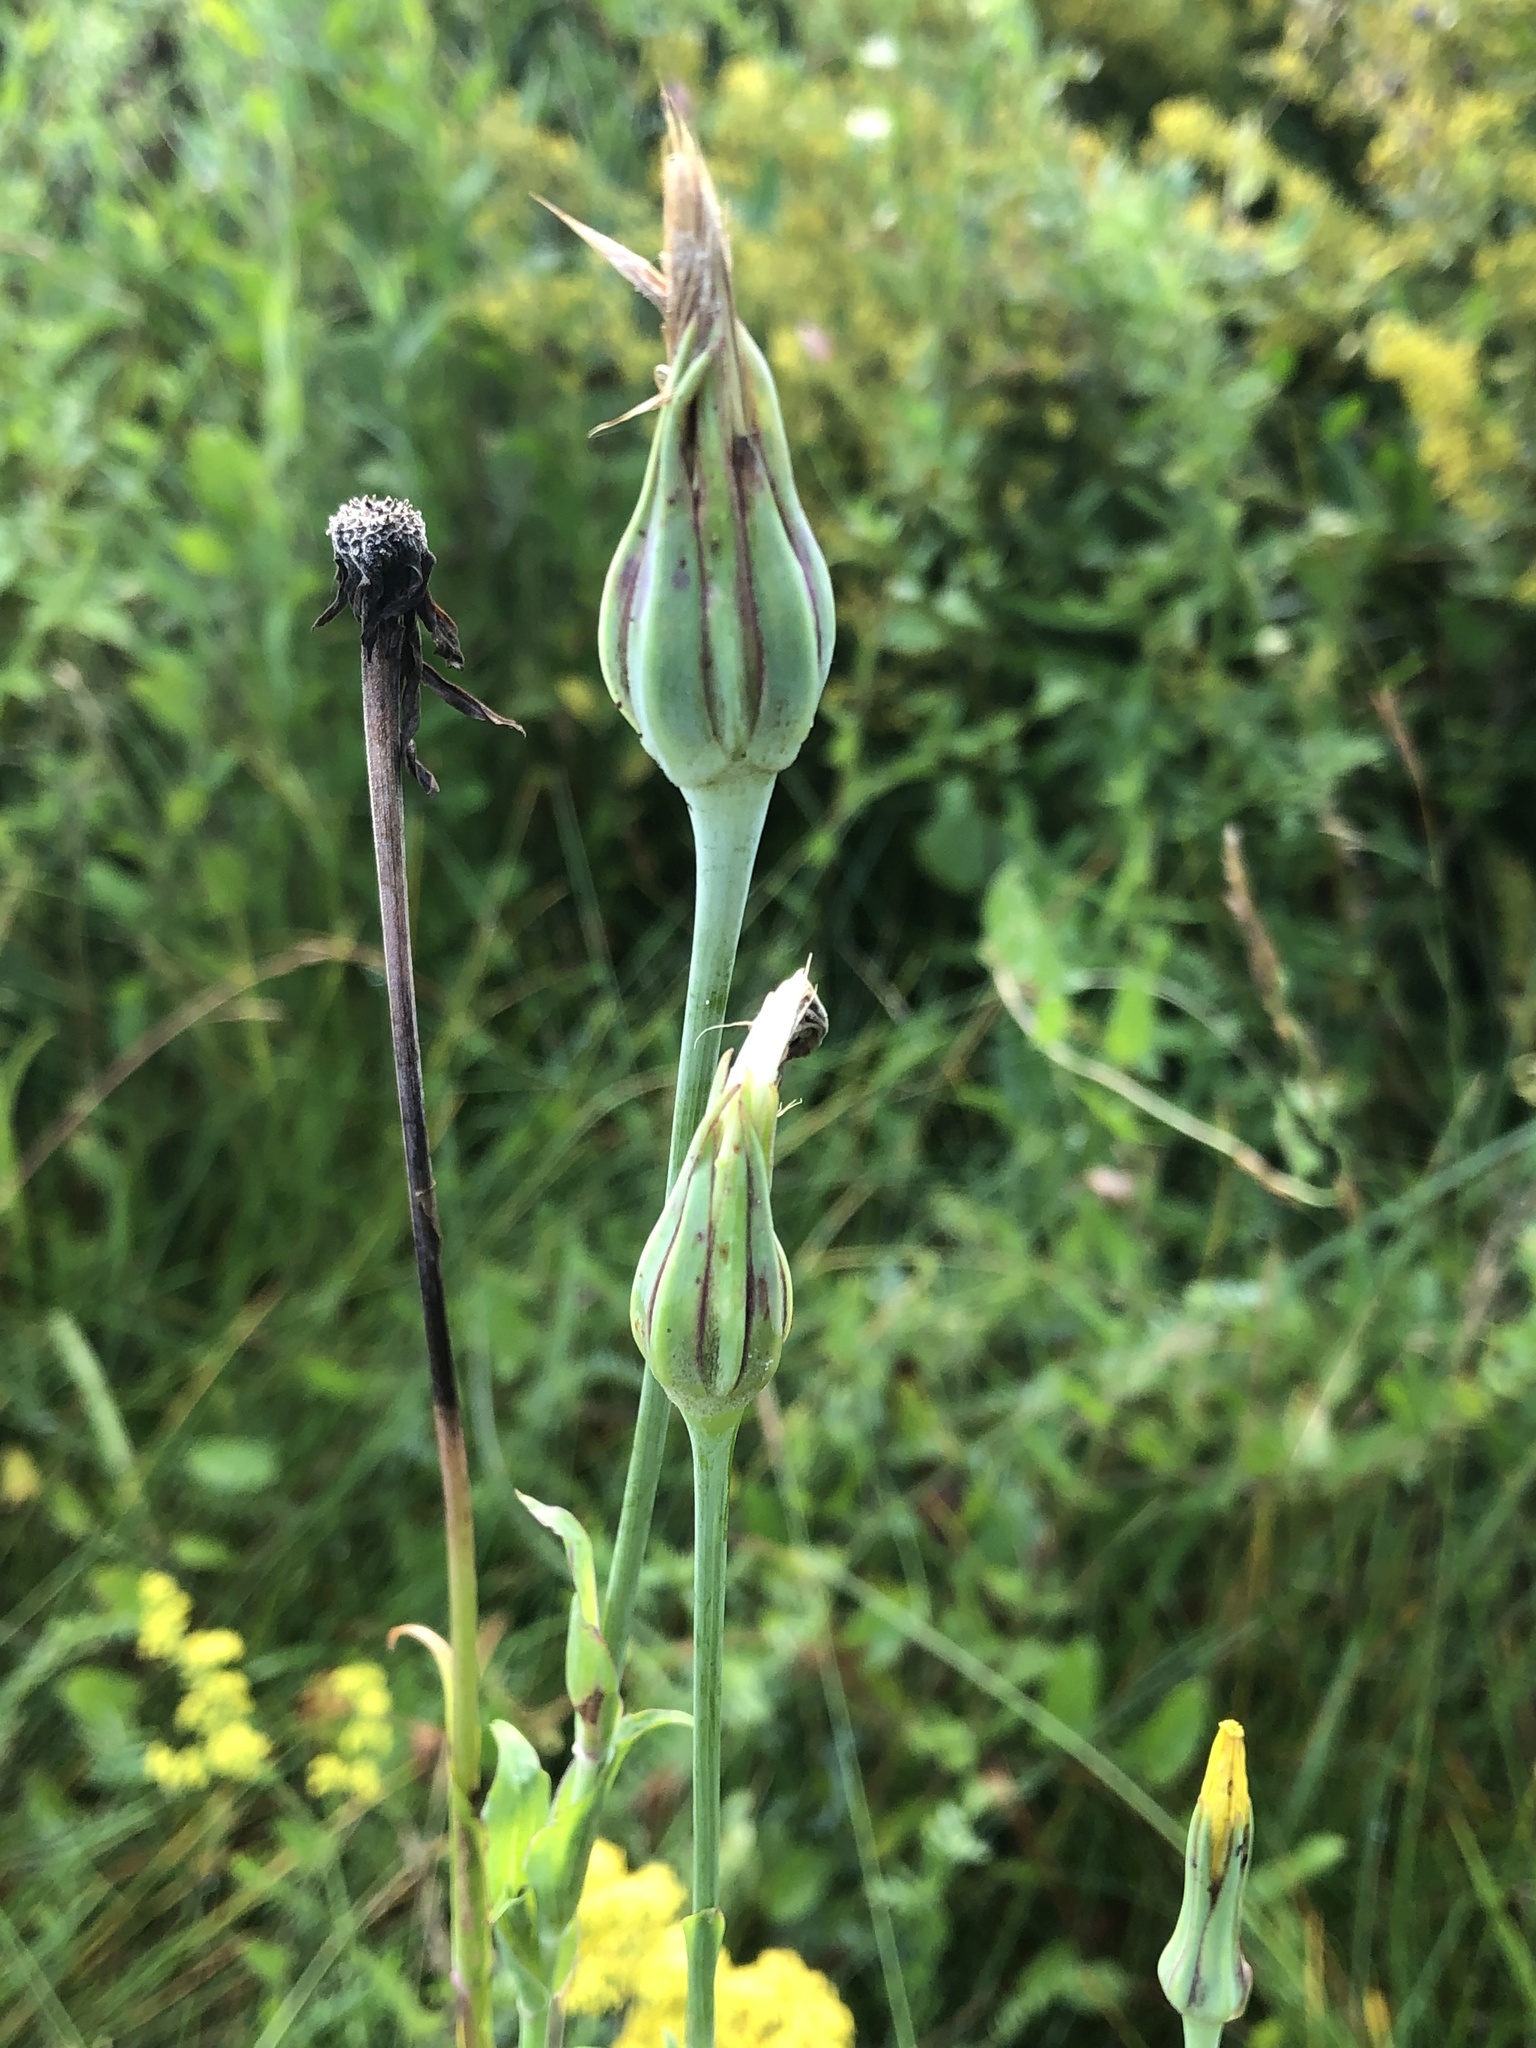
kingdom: Plantae
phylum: Tracheophyta
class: Magnoliopsida
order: Asterales
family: Asteraceae
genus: Tragopogon
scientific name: Tragopogon pratensis
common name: Goat's-beard
